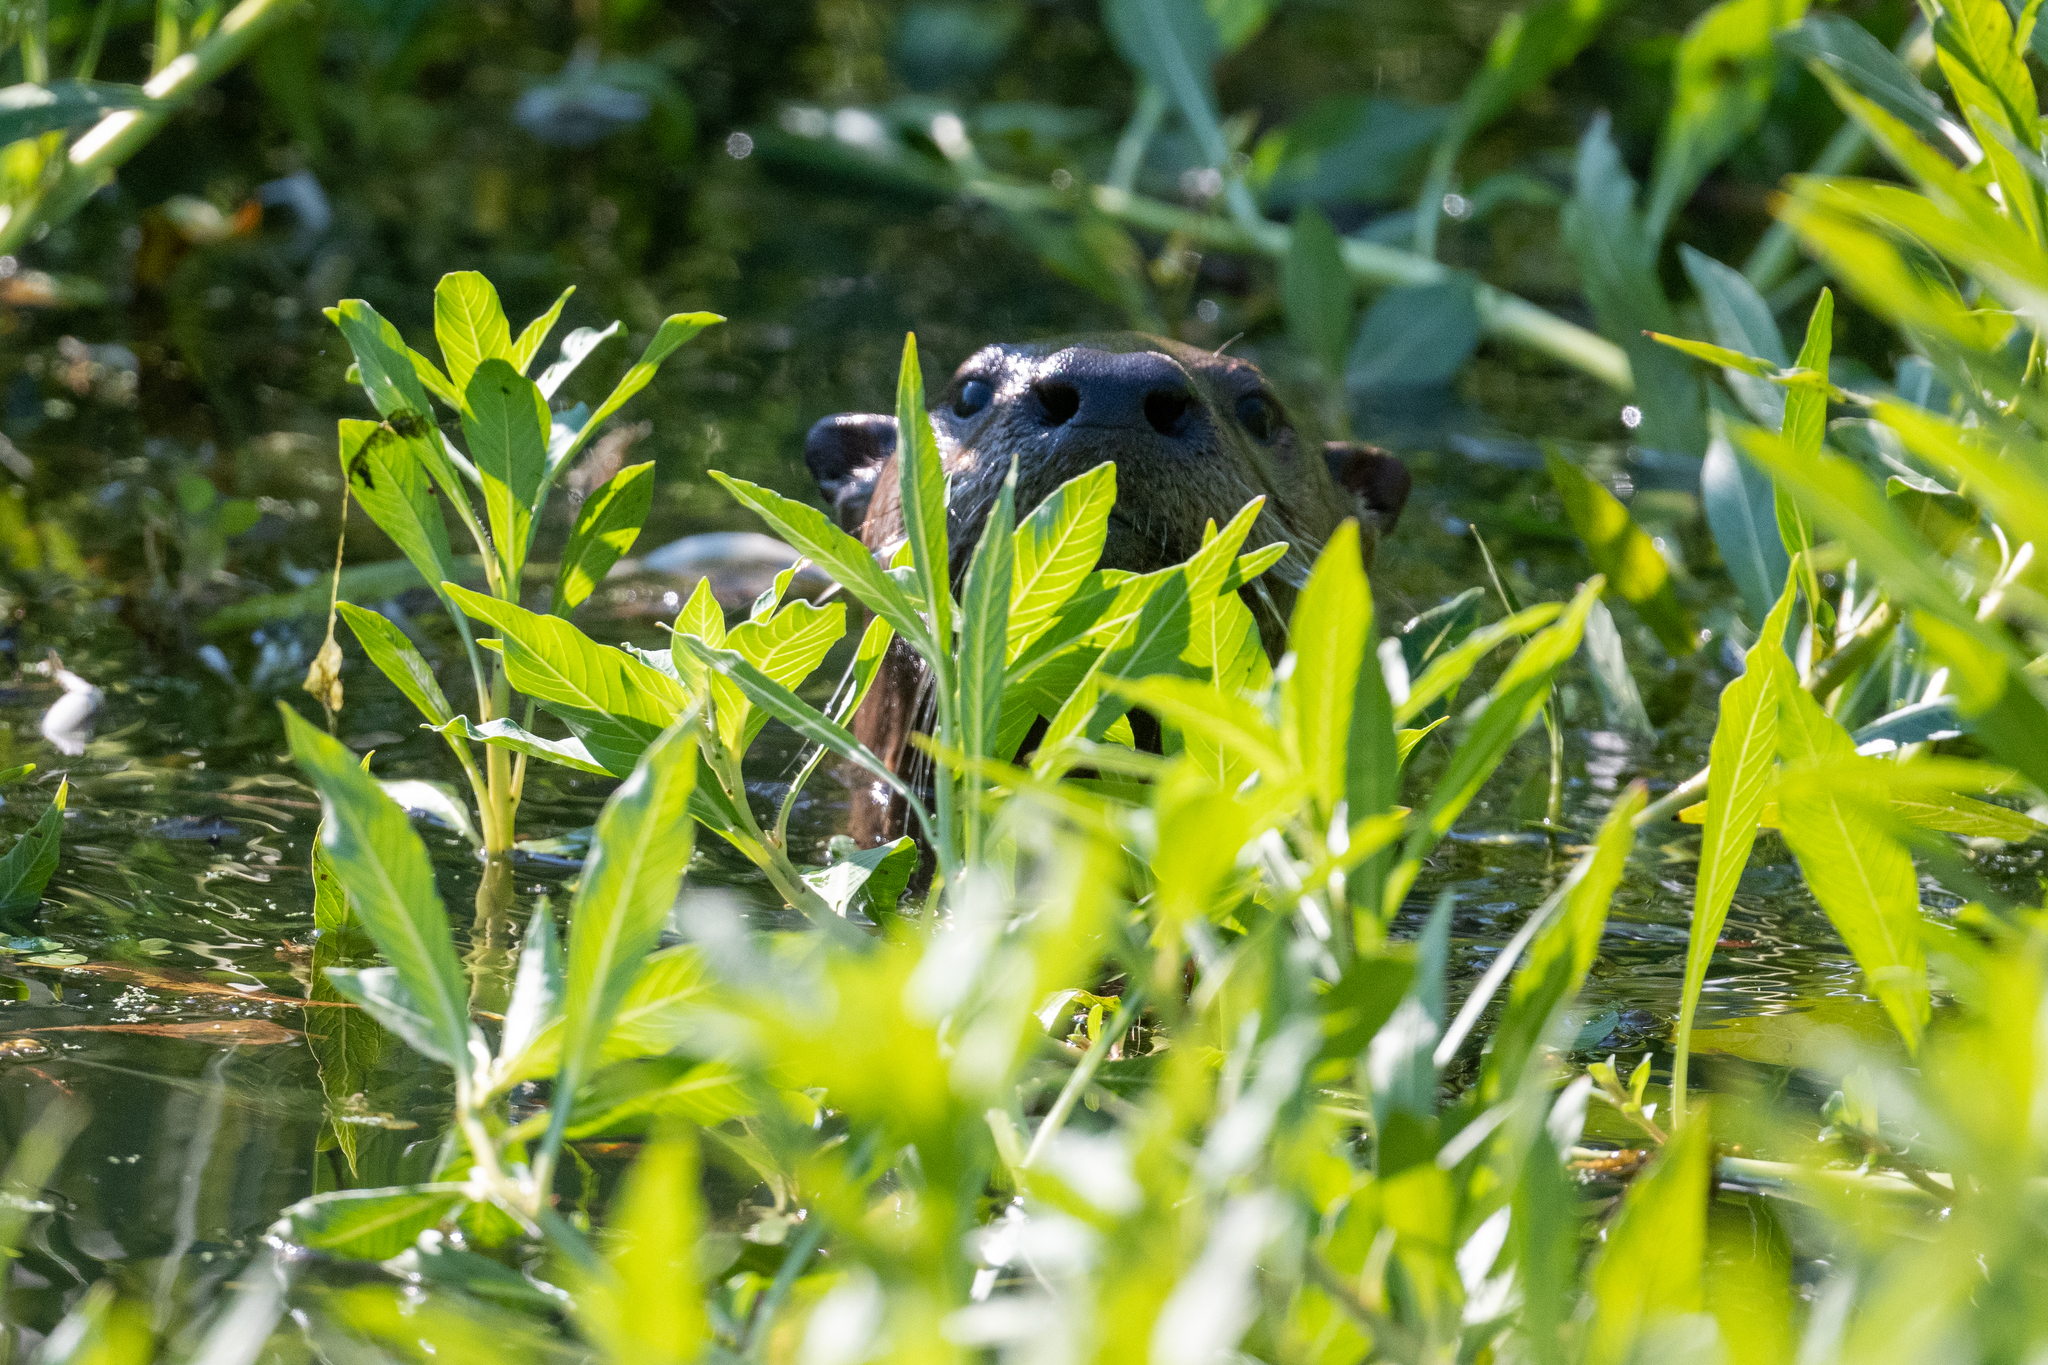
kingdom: Animalia
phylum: Chordata
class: Mammalia
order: Carnivora
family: Mustelidae
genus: Lontra
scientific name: Lontra canadensis
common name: North american river otter
